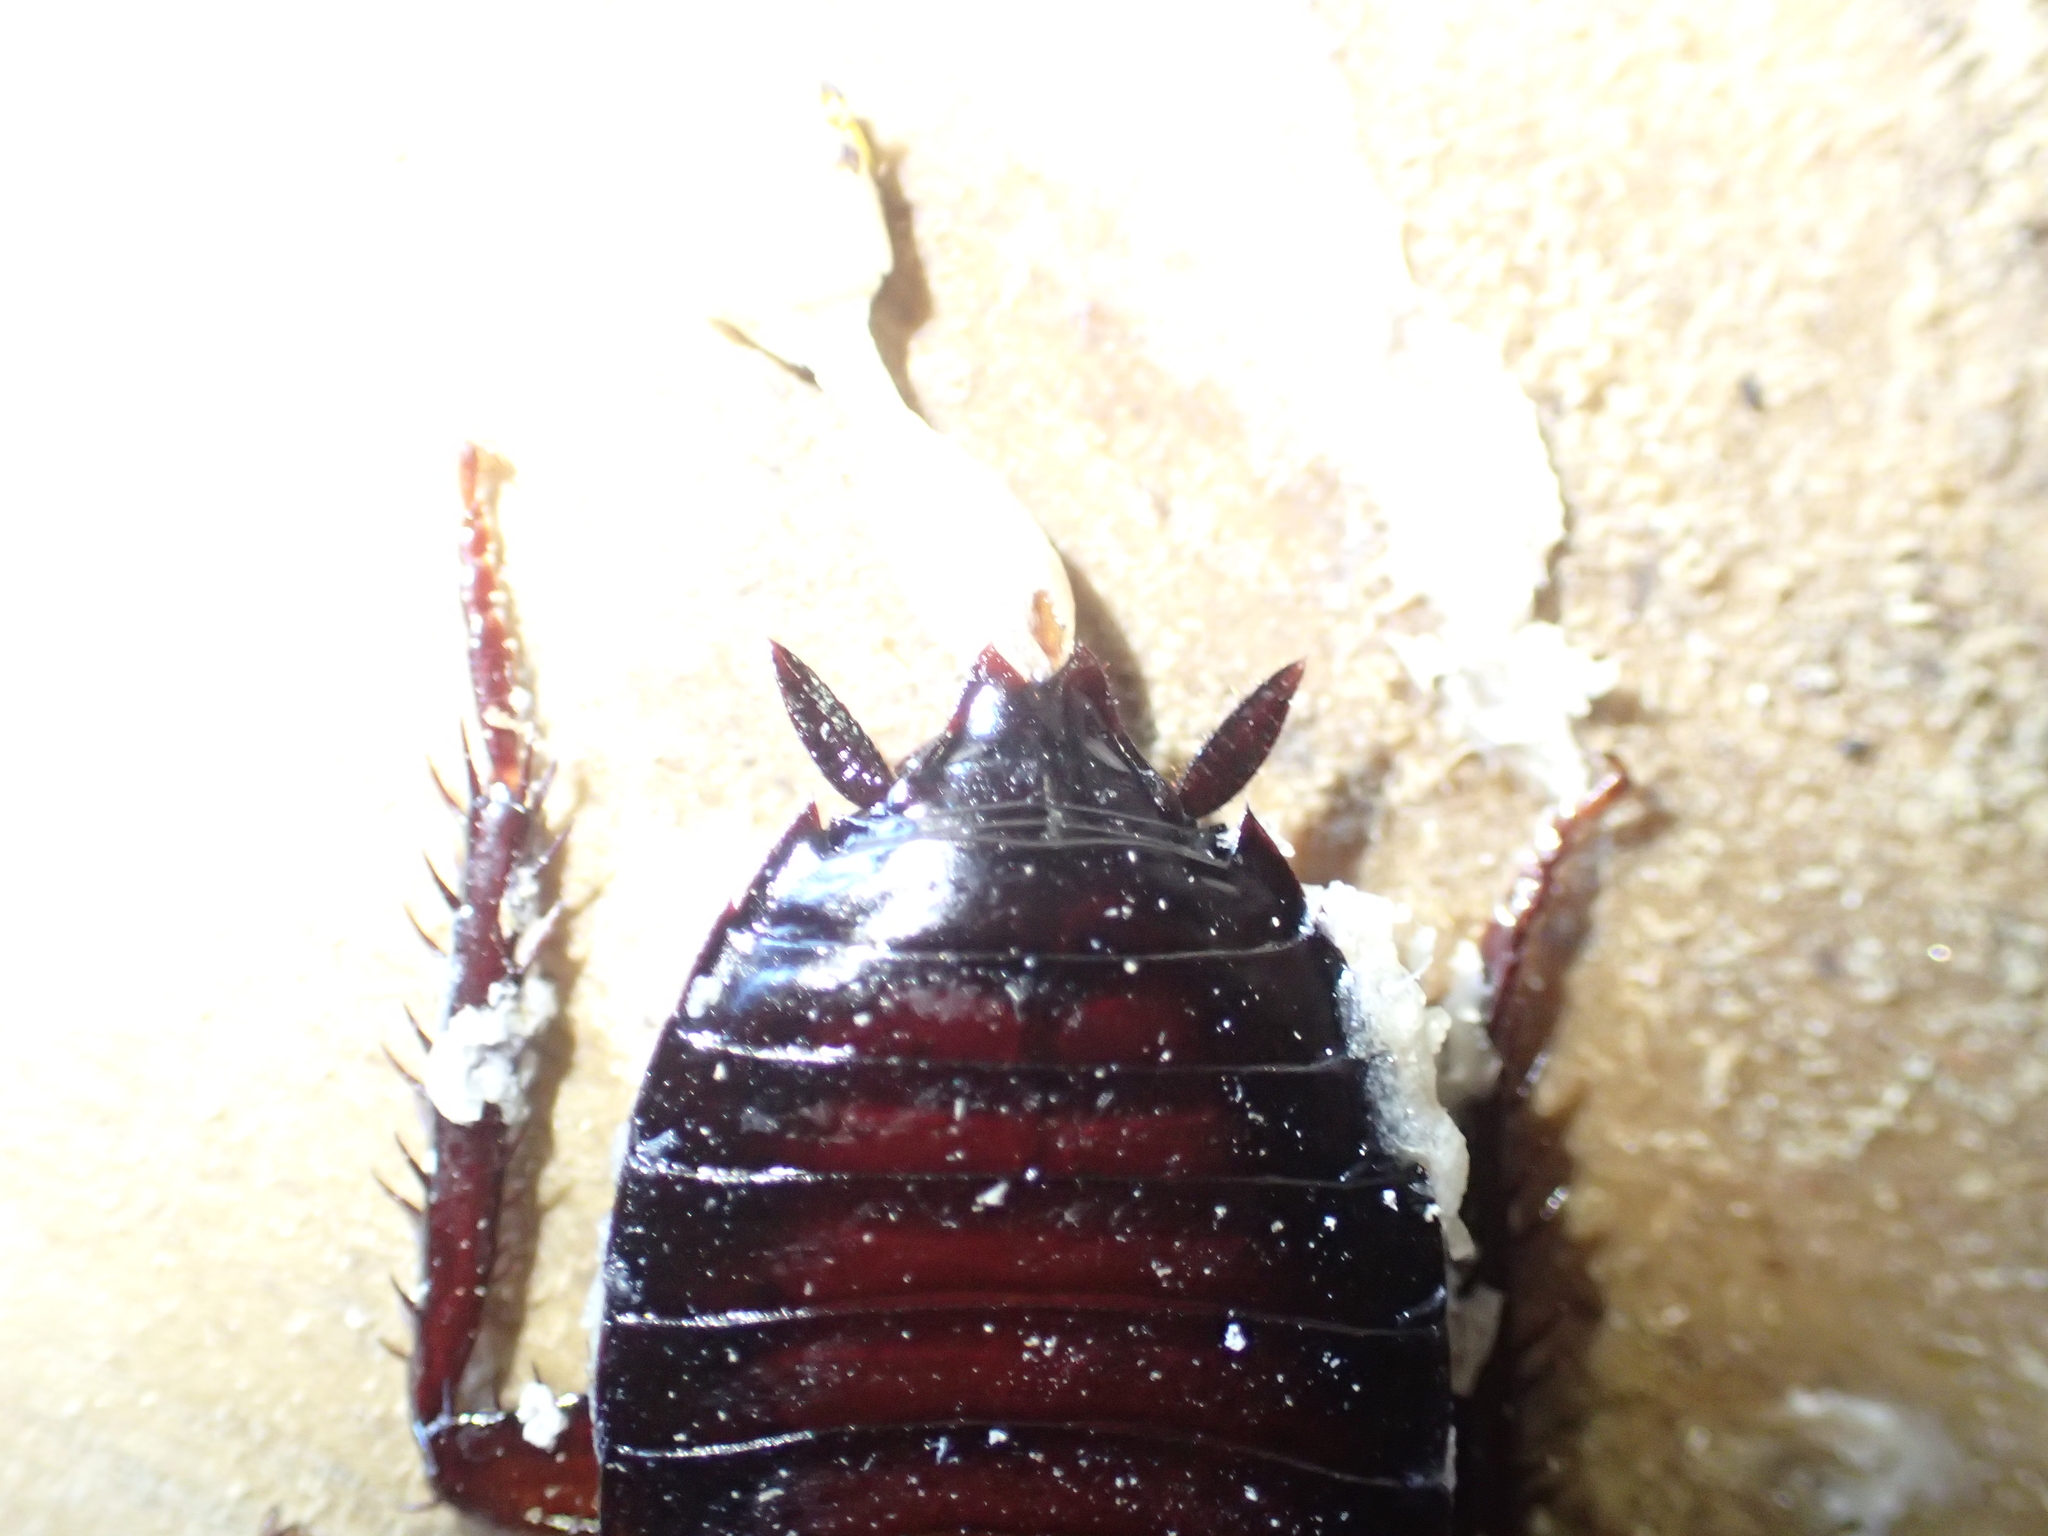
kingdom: Animalia
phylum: Arthropoda
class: Insecta
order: Blattodea
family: Blattidae
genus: Drymaplaneta
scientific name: Drymaplaneta semivitta
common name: Gisborne cockroach
